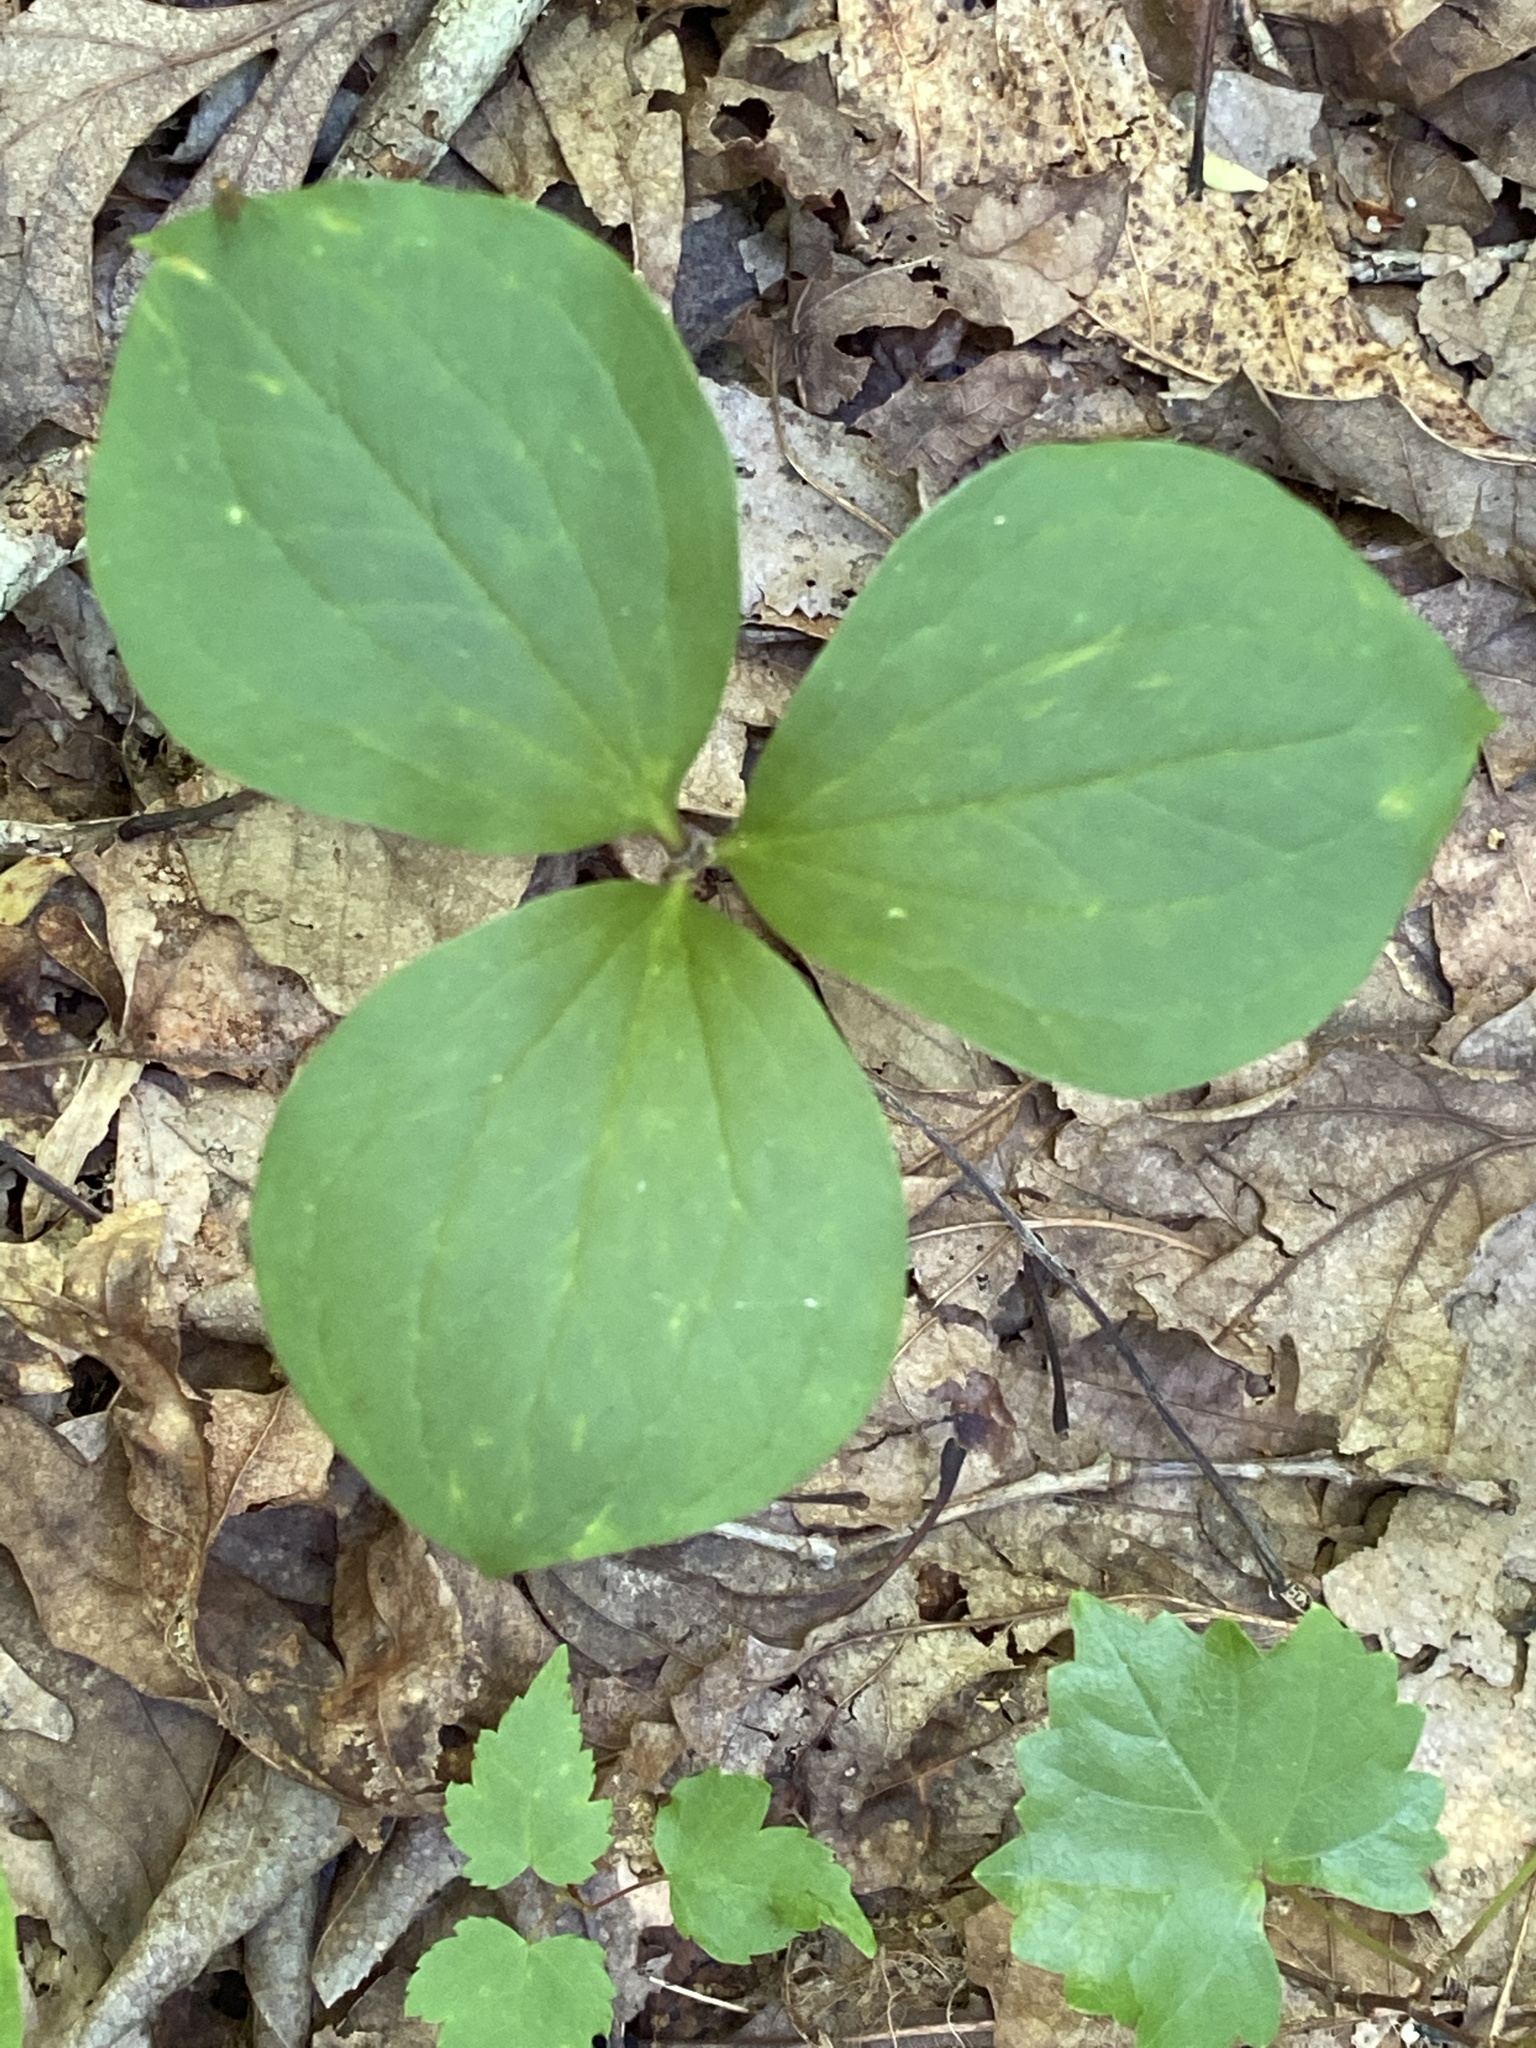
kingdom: Plantae
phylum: Tracheophyta
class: Liliopsida
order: Liliales
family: Melanthiaceae
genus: Trillium
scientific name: Trillium catesbaei
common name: Bashful trillium
